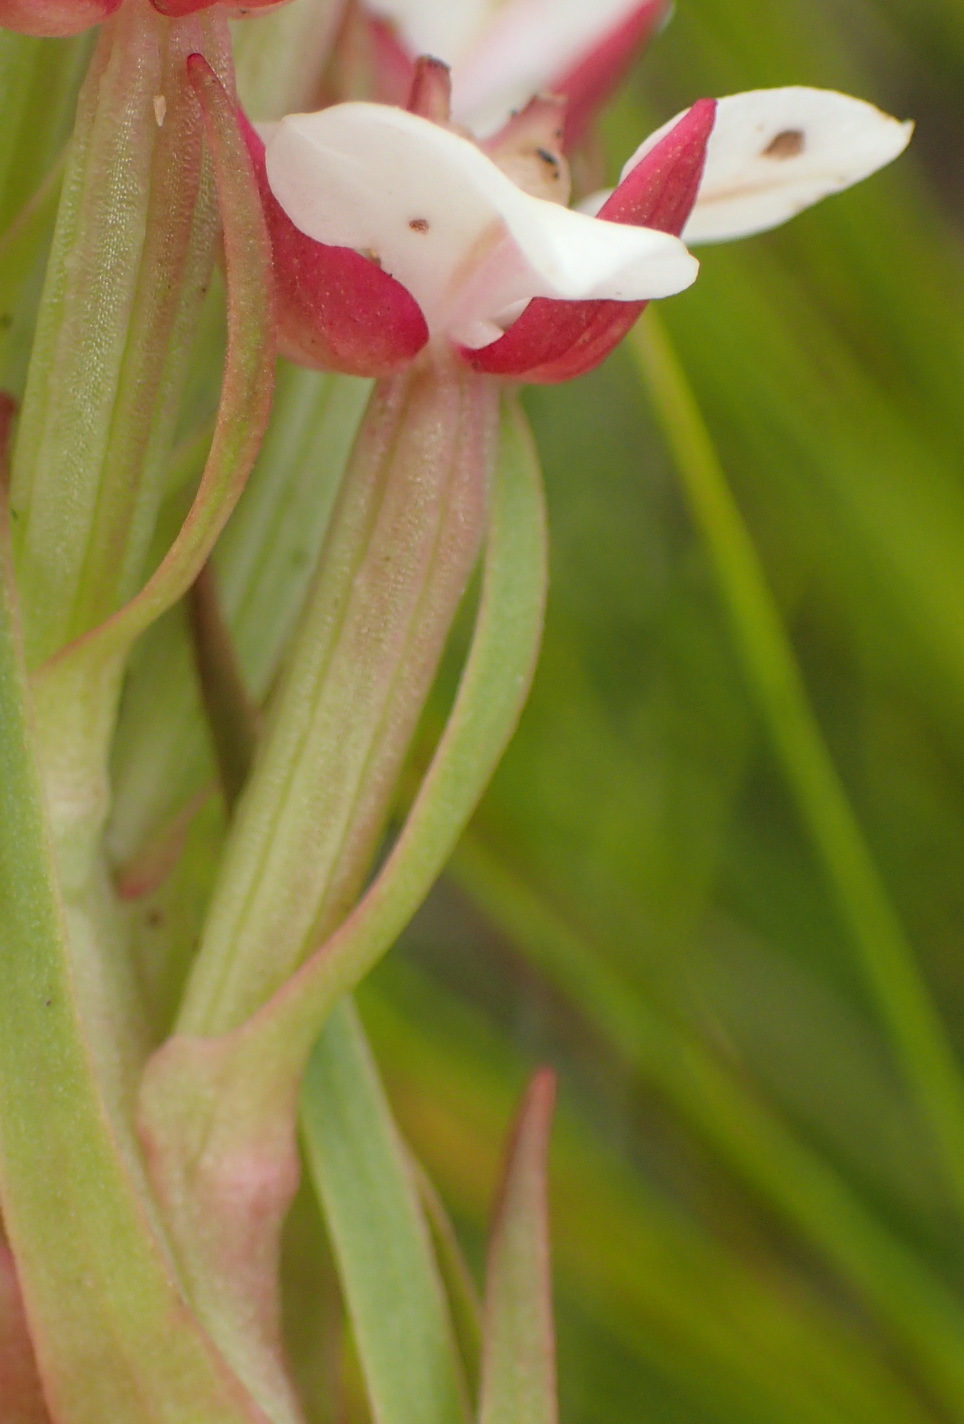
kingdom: Plantae
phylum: Tracheophyta
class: Liliopsida
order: Asparagales
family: Orchidaceae
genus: Ceratandra
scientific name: Ceratandra globosa
